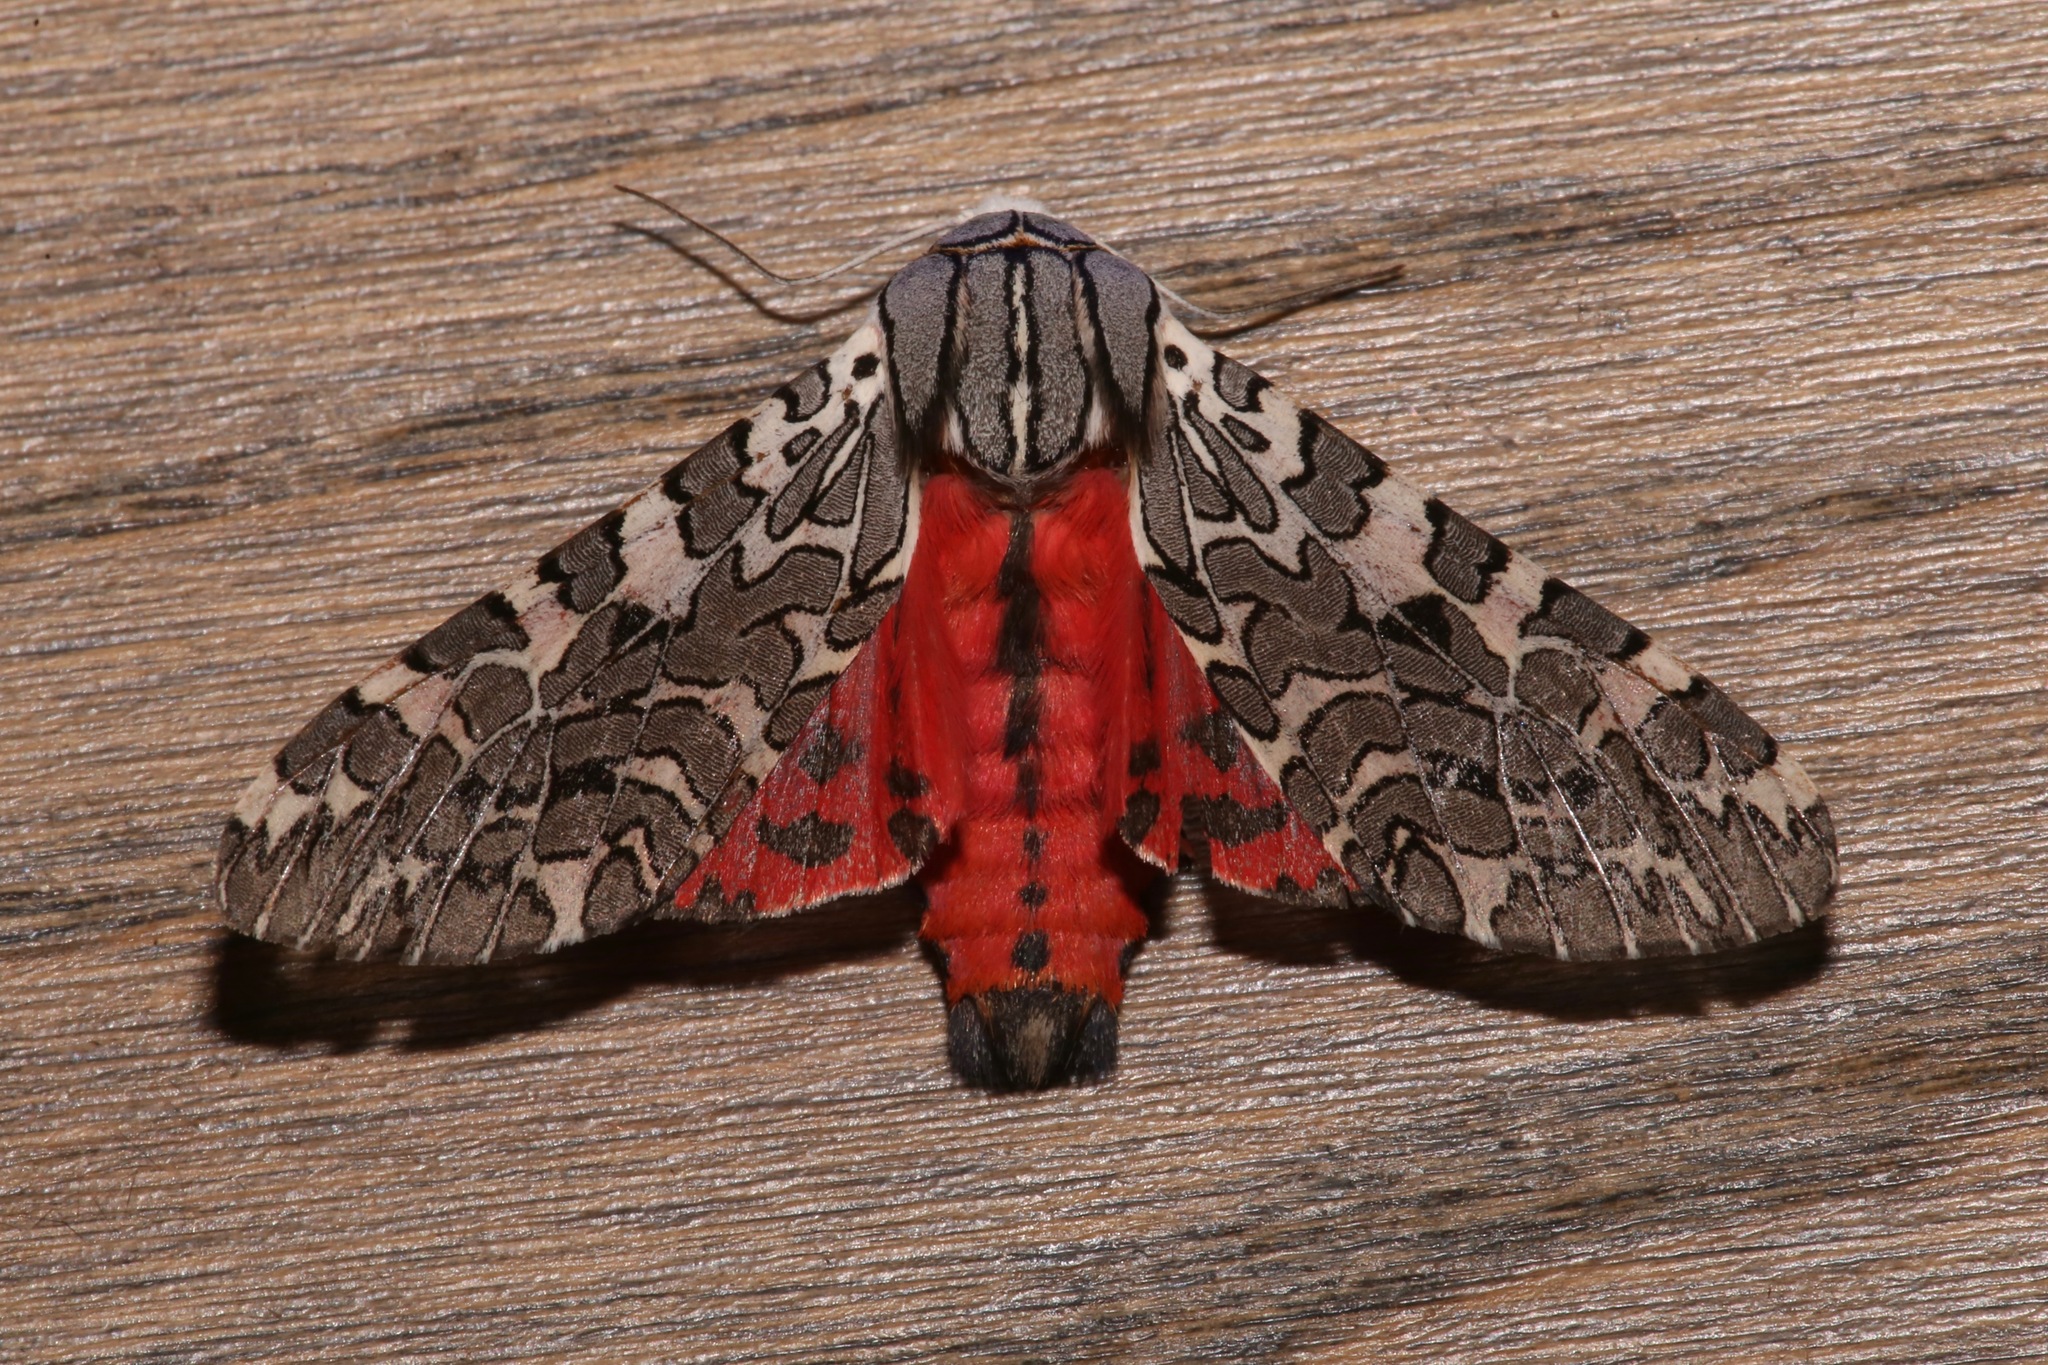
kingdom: Animalia
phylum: Arthropoda
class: Insecta
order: Lepidoptera
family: Erebidae
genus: Arachnis
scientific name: Arachnis picta
